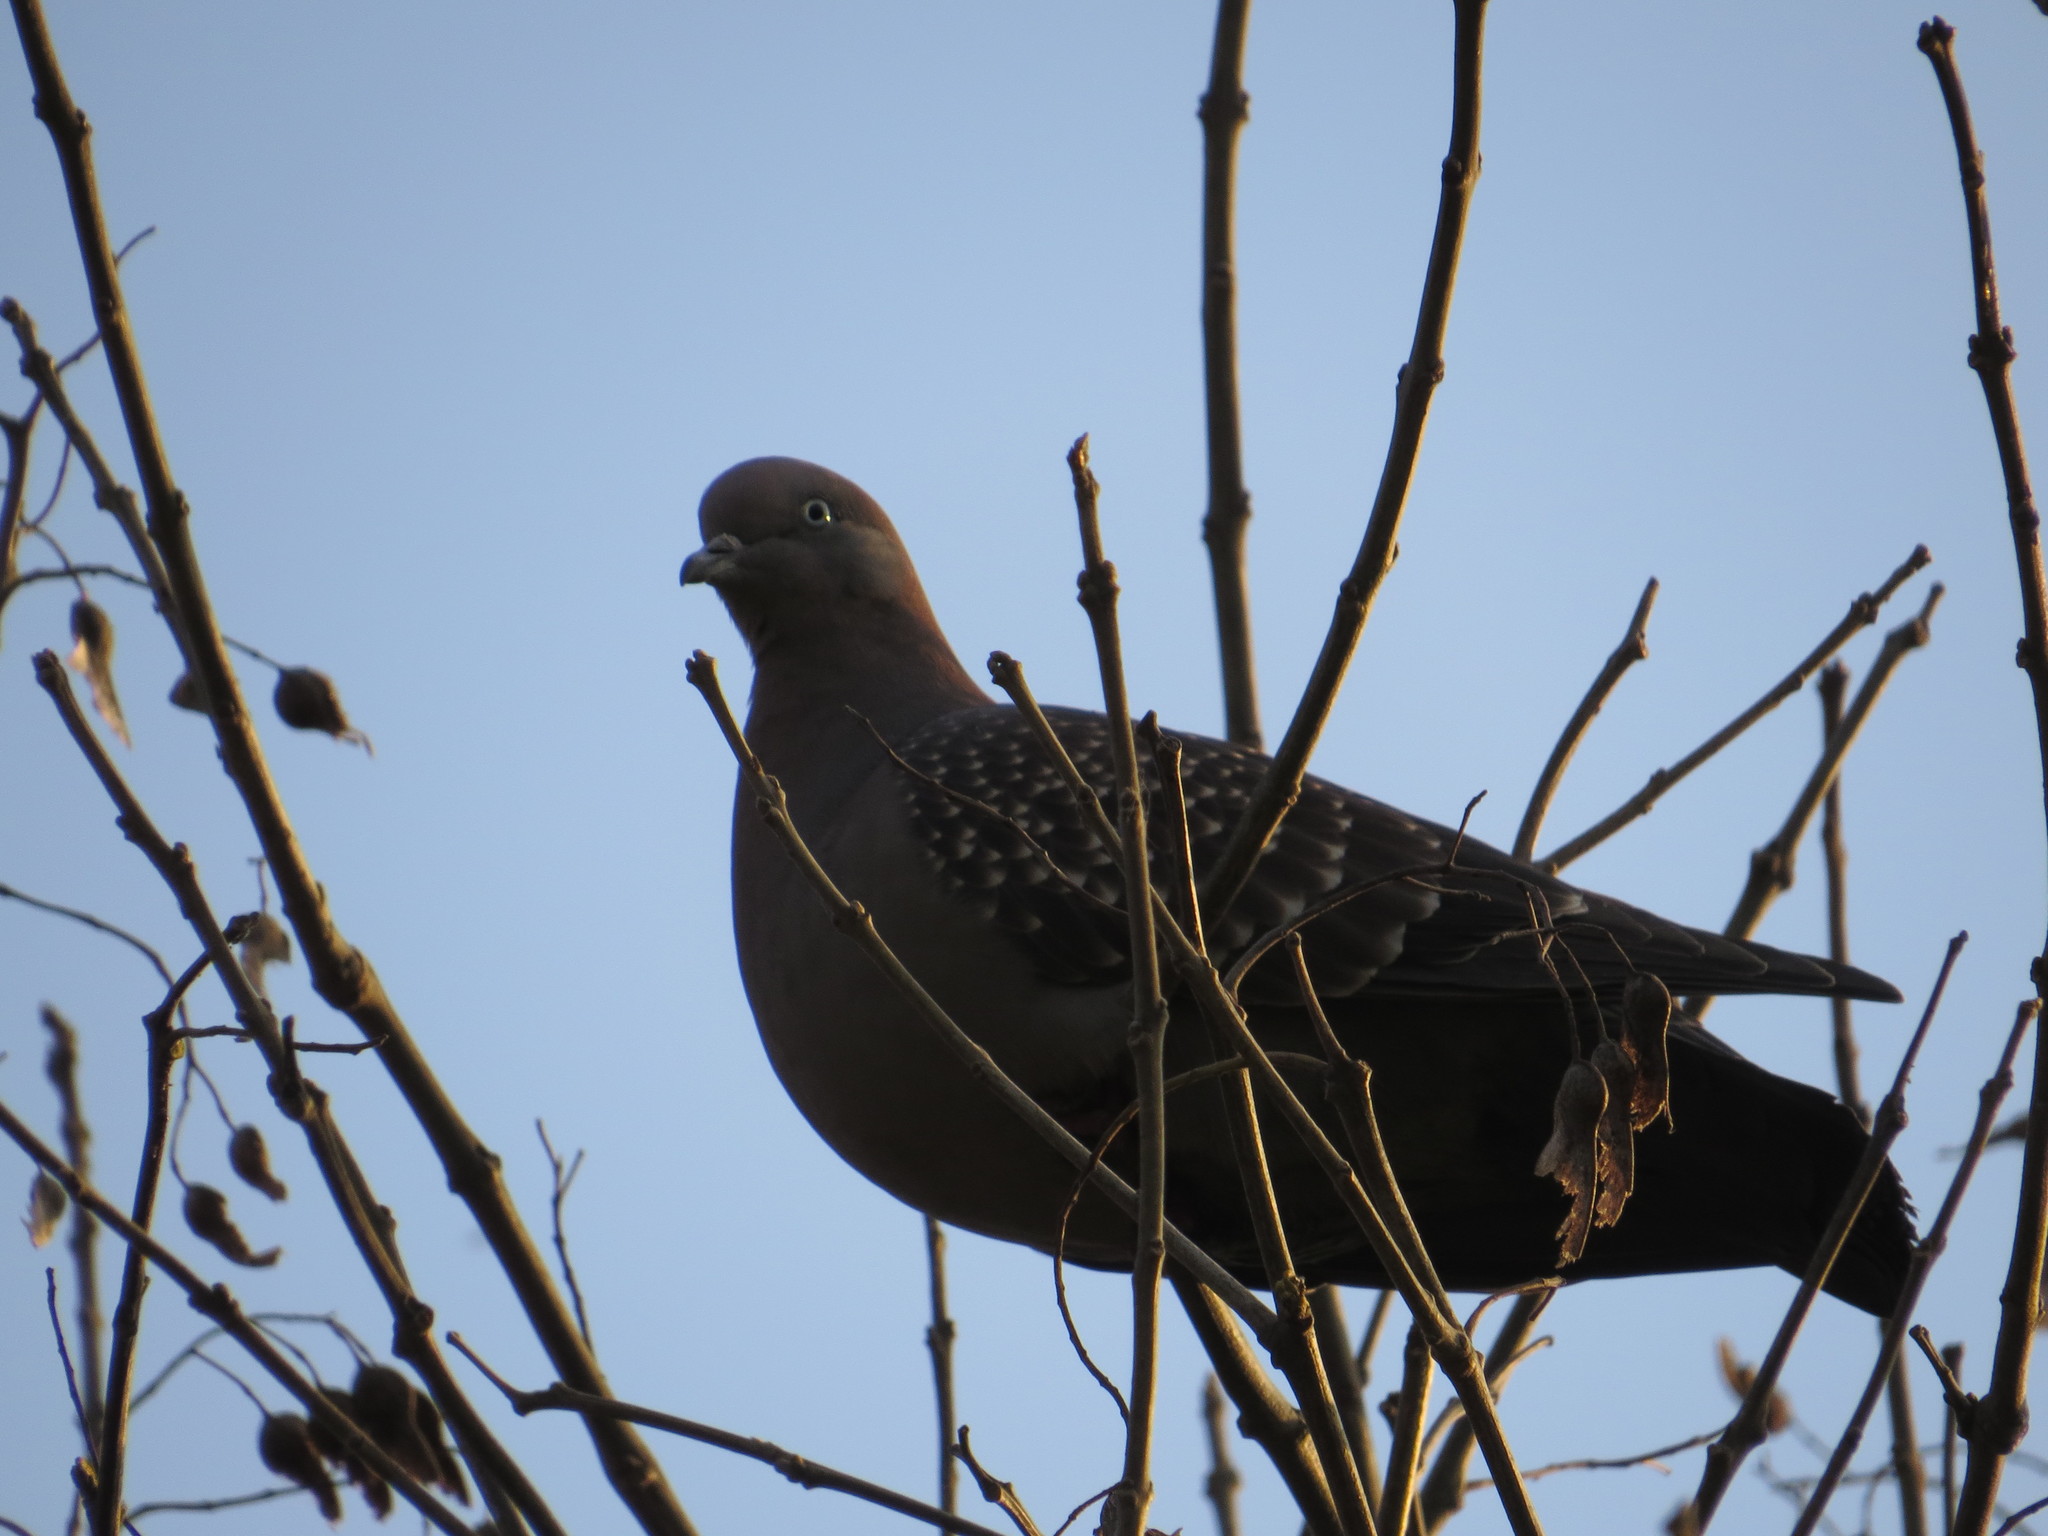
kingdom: Animalia
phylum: Chordata
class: Aves
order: Columbiformes
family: Columbidae
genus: Patagioenas
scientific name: Patagioenas maculosa
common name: Spot-winged pigeon
